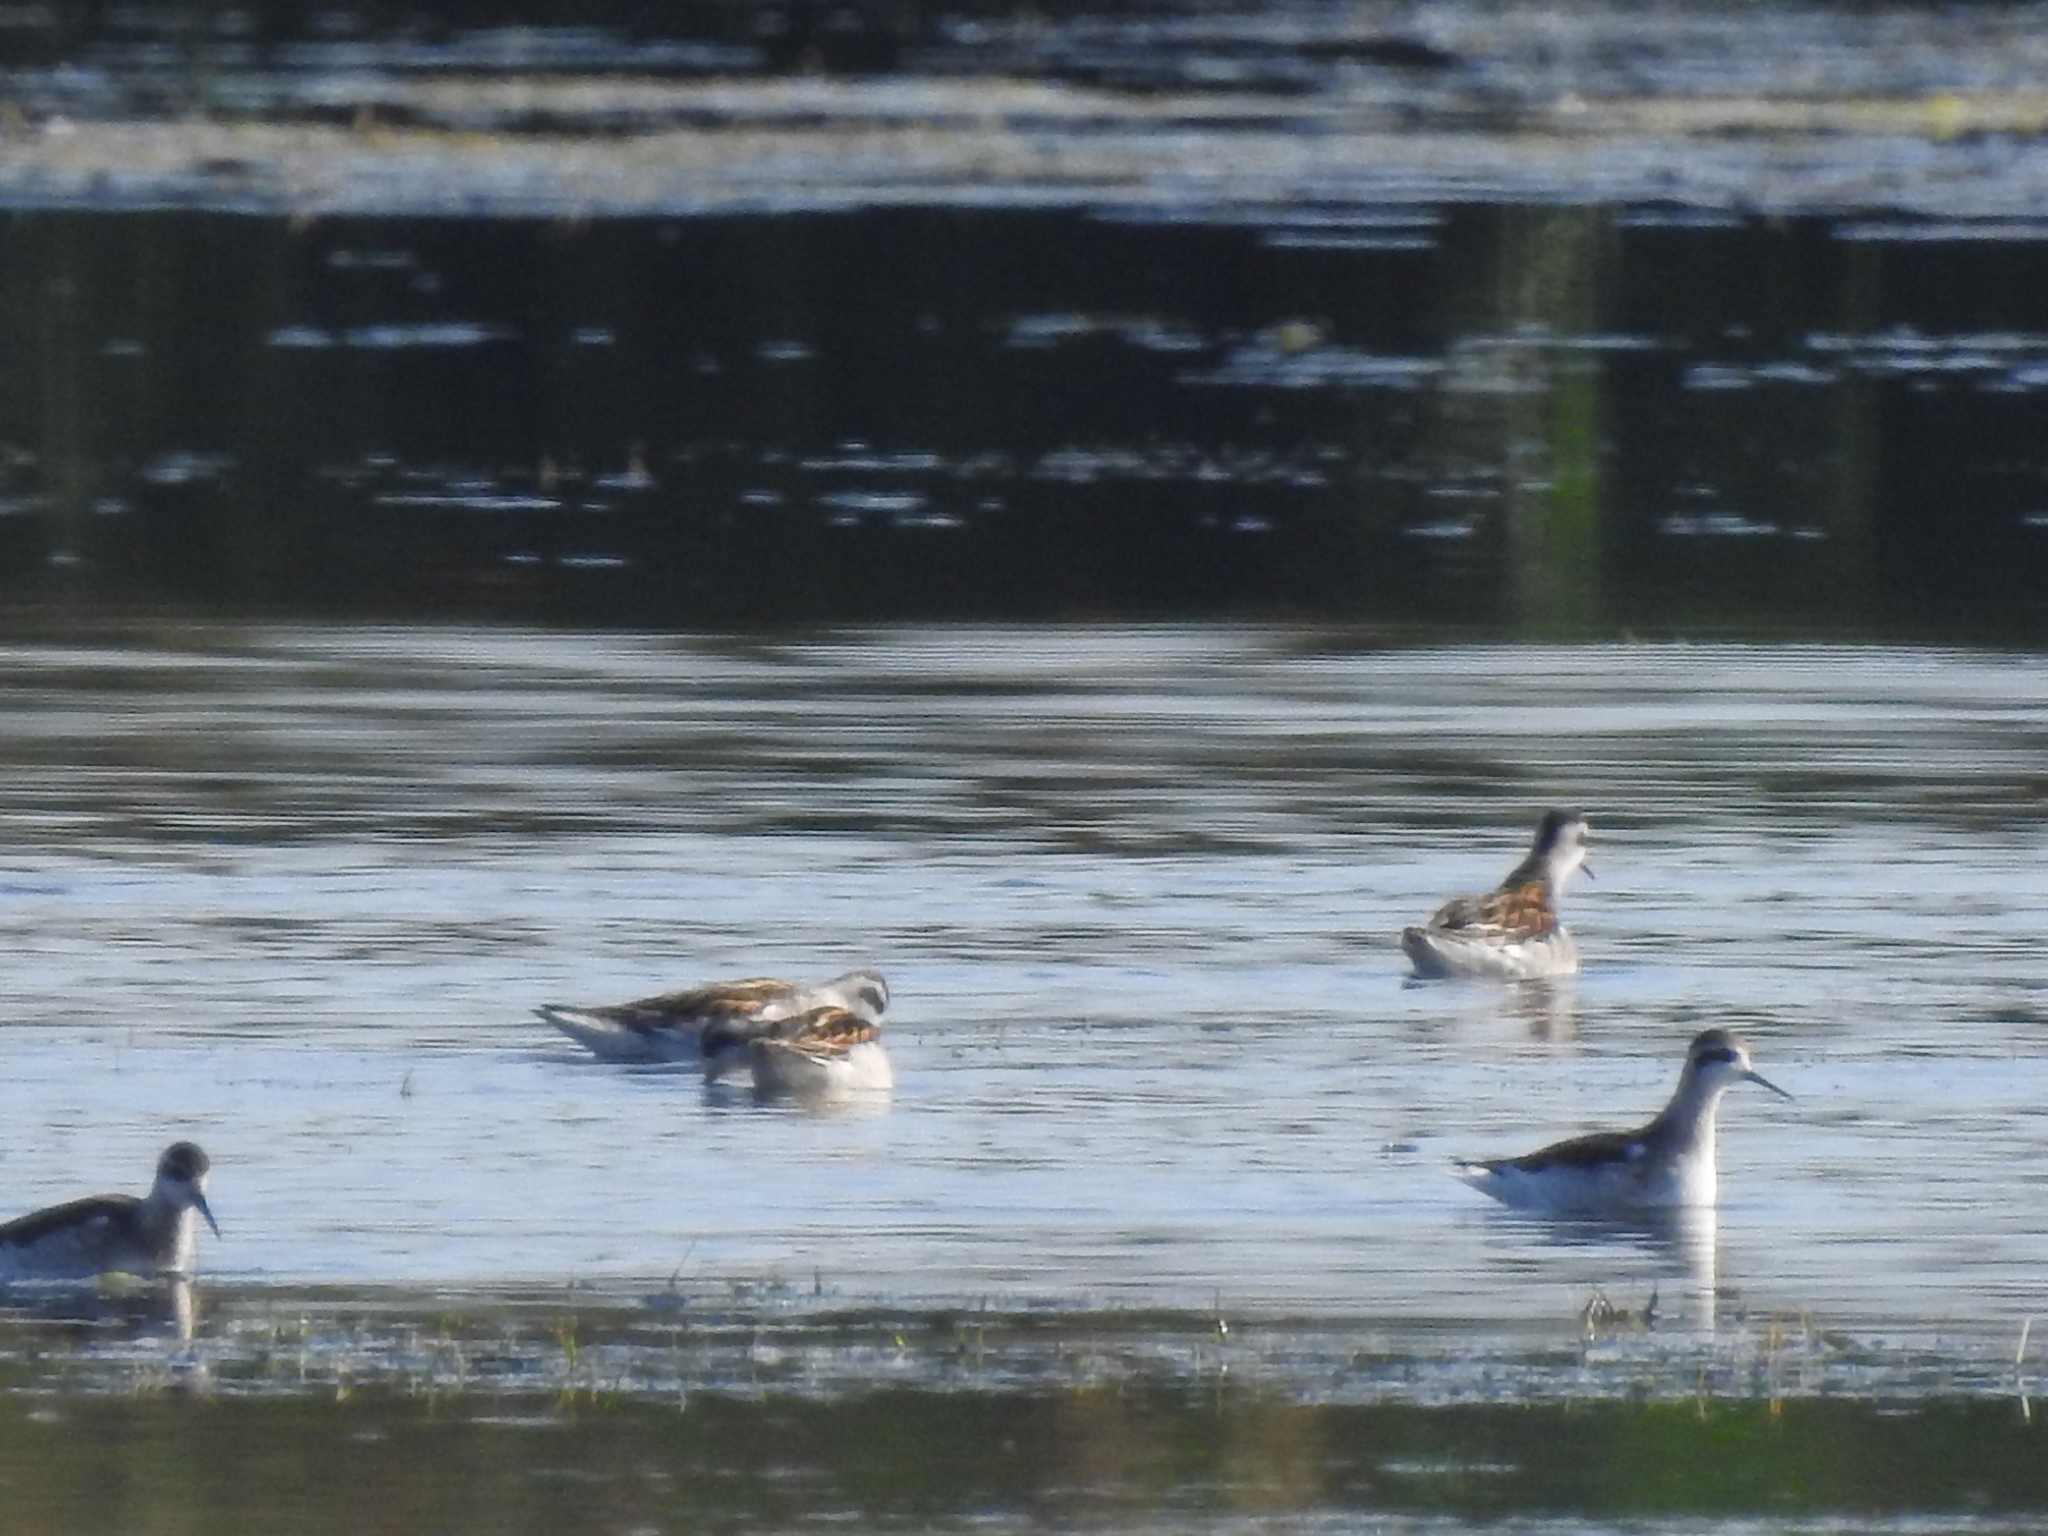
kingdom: Animalia
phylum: Chordata
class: Aves
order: Charadriiformes
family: Scolopacidae
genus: Phalaropus
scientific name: Phalaropus lobatus
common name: Red-necked phalarope
